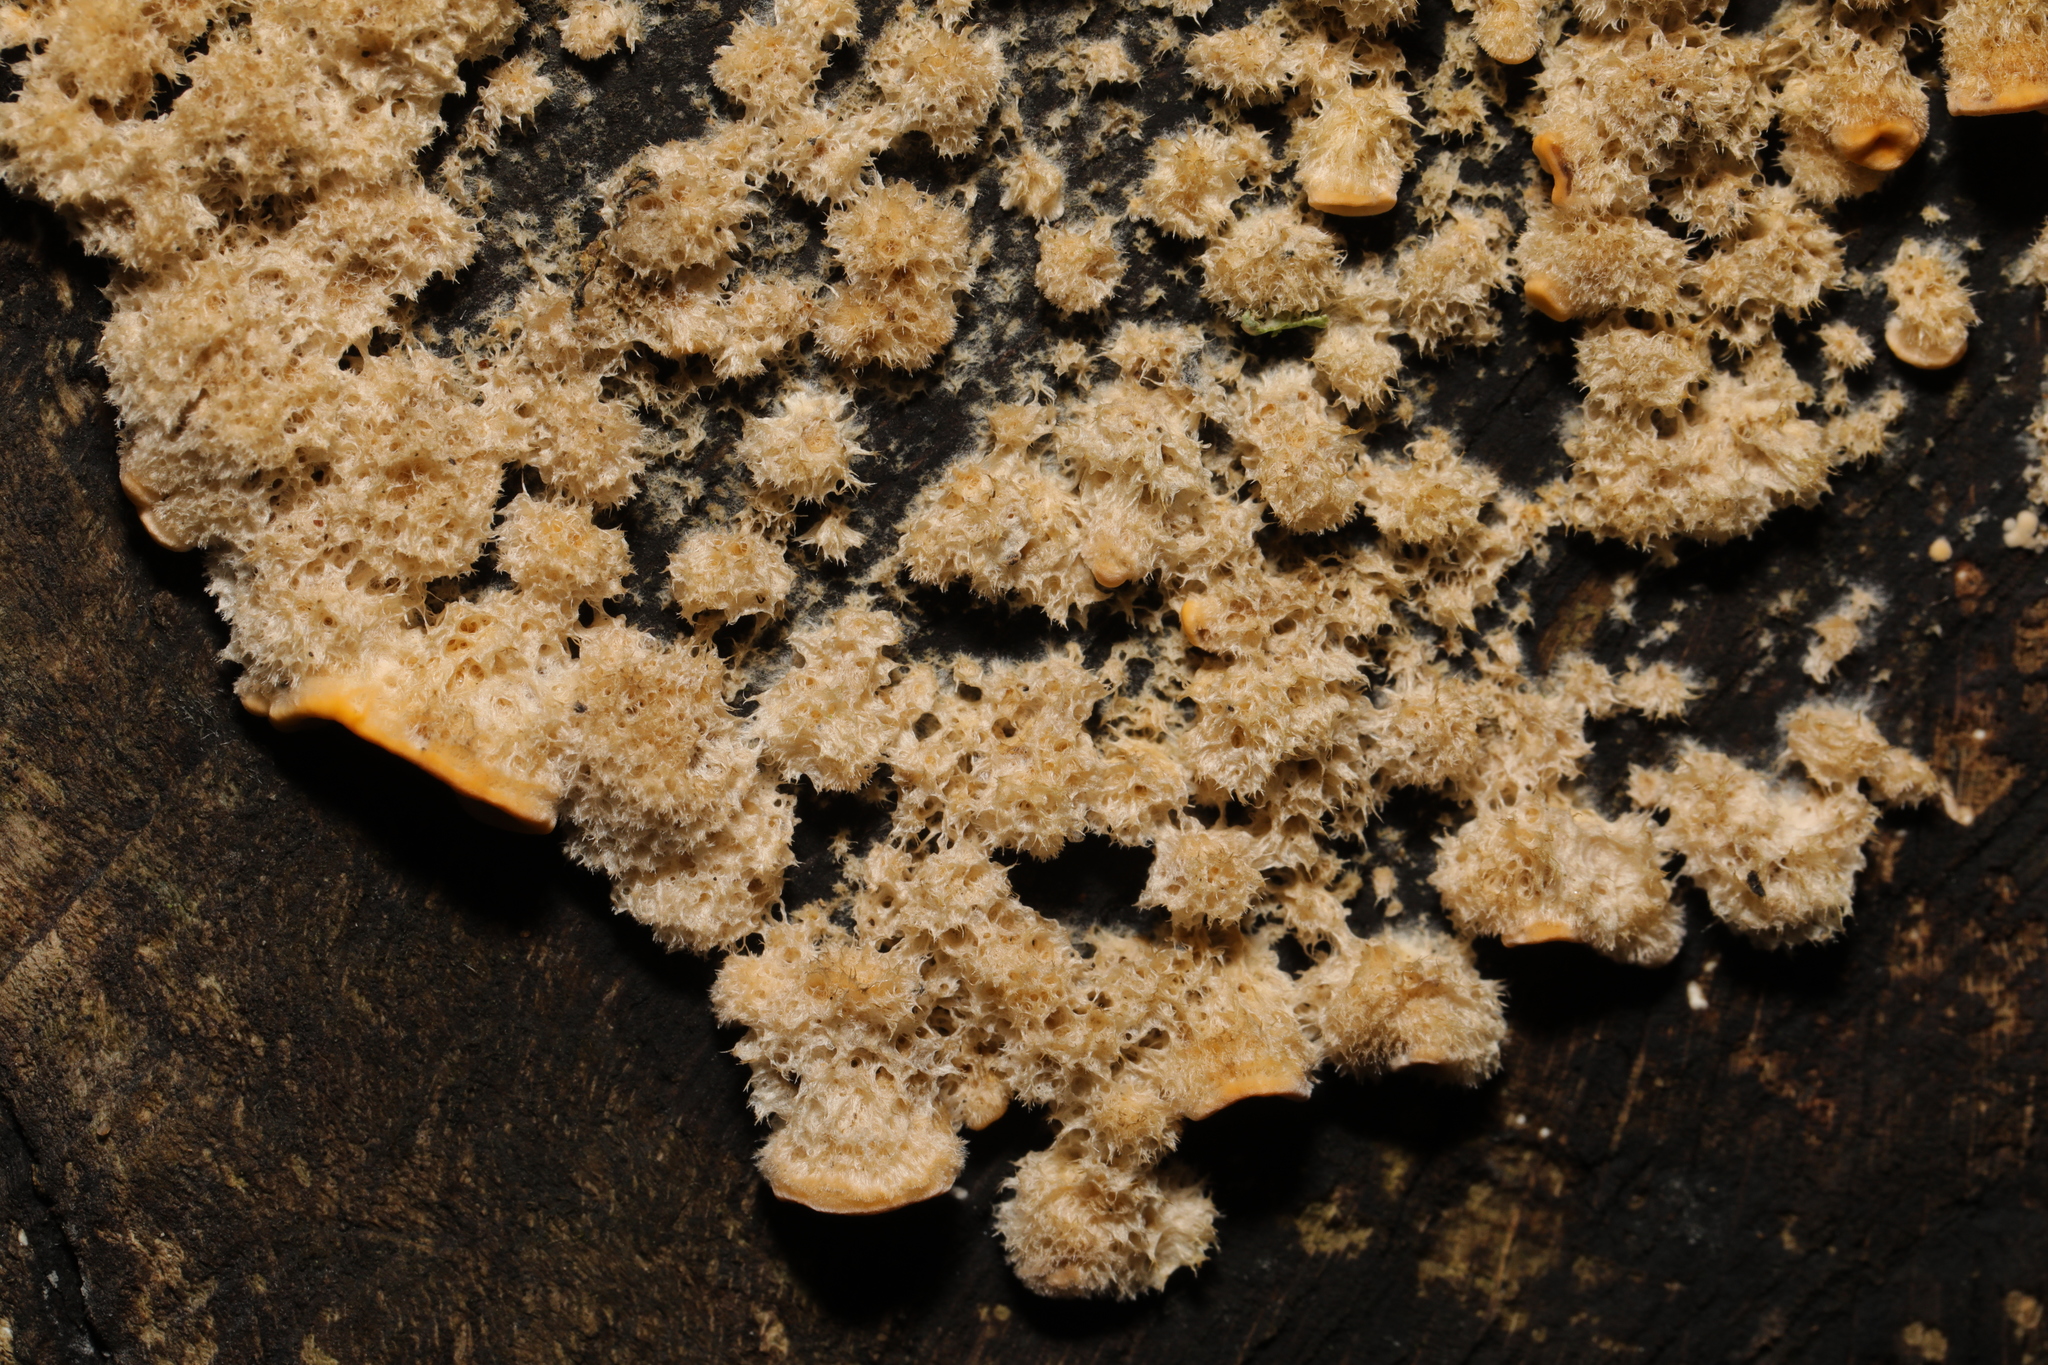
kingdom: Fungi
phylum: Basidiomycota
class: Agaricomycetes
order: Russulales
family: Stereaceae
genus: Stereum
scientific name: Stereum
